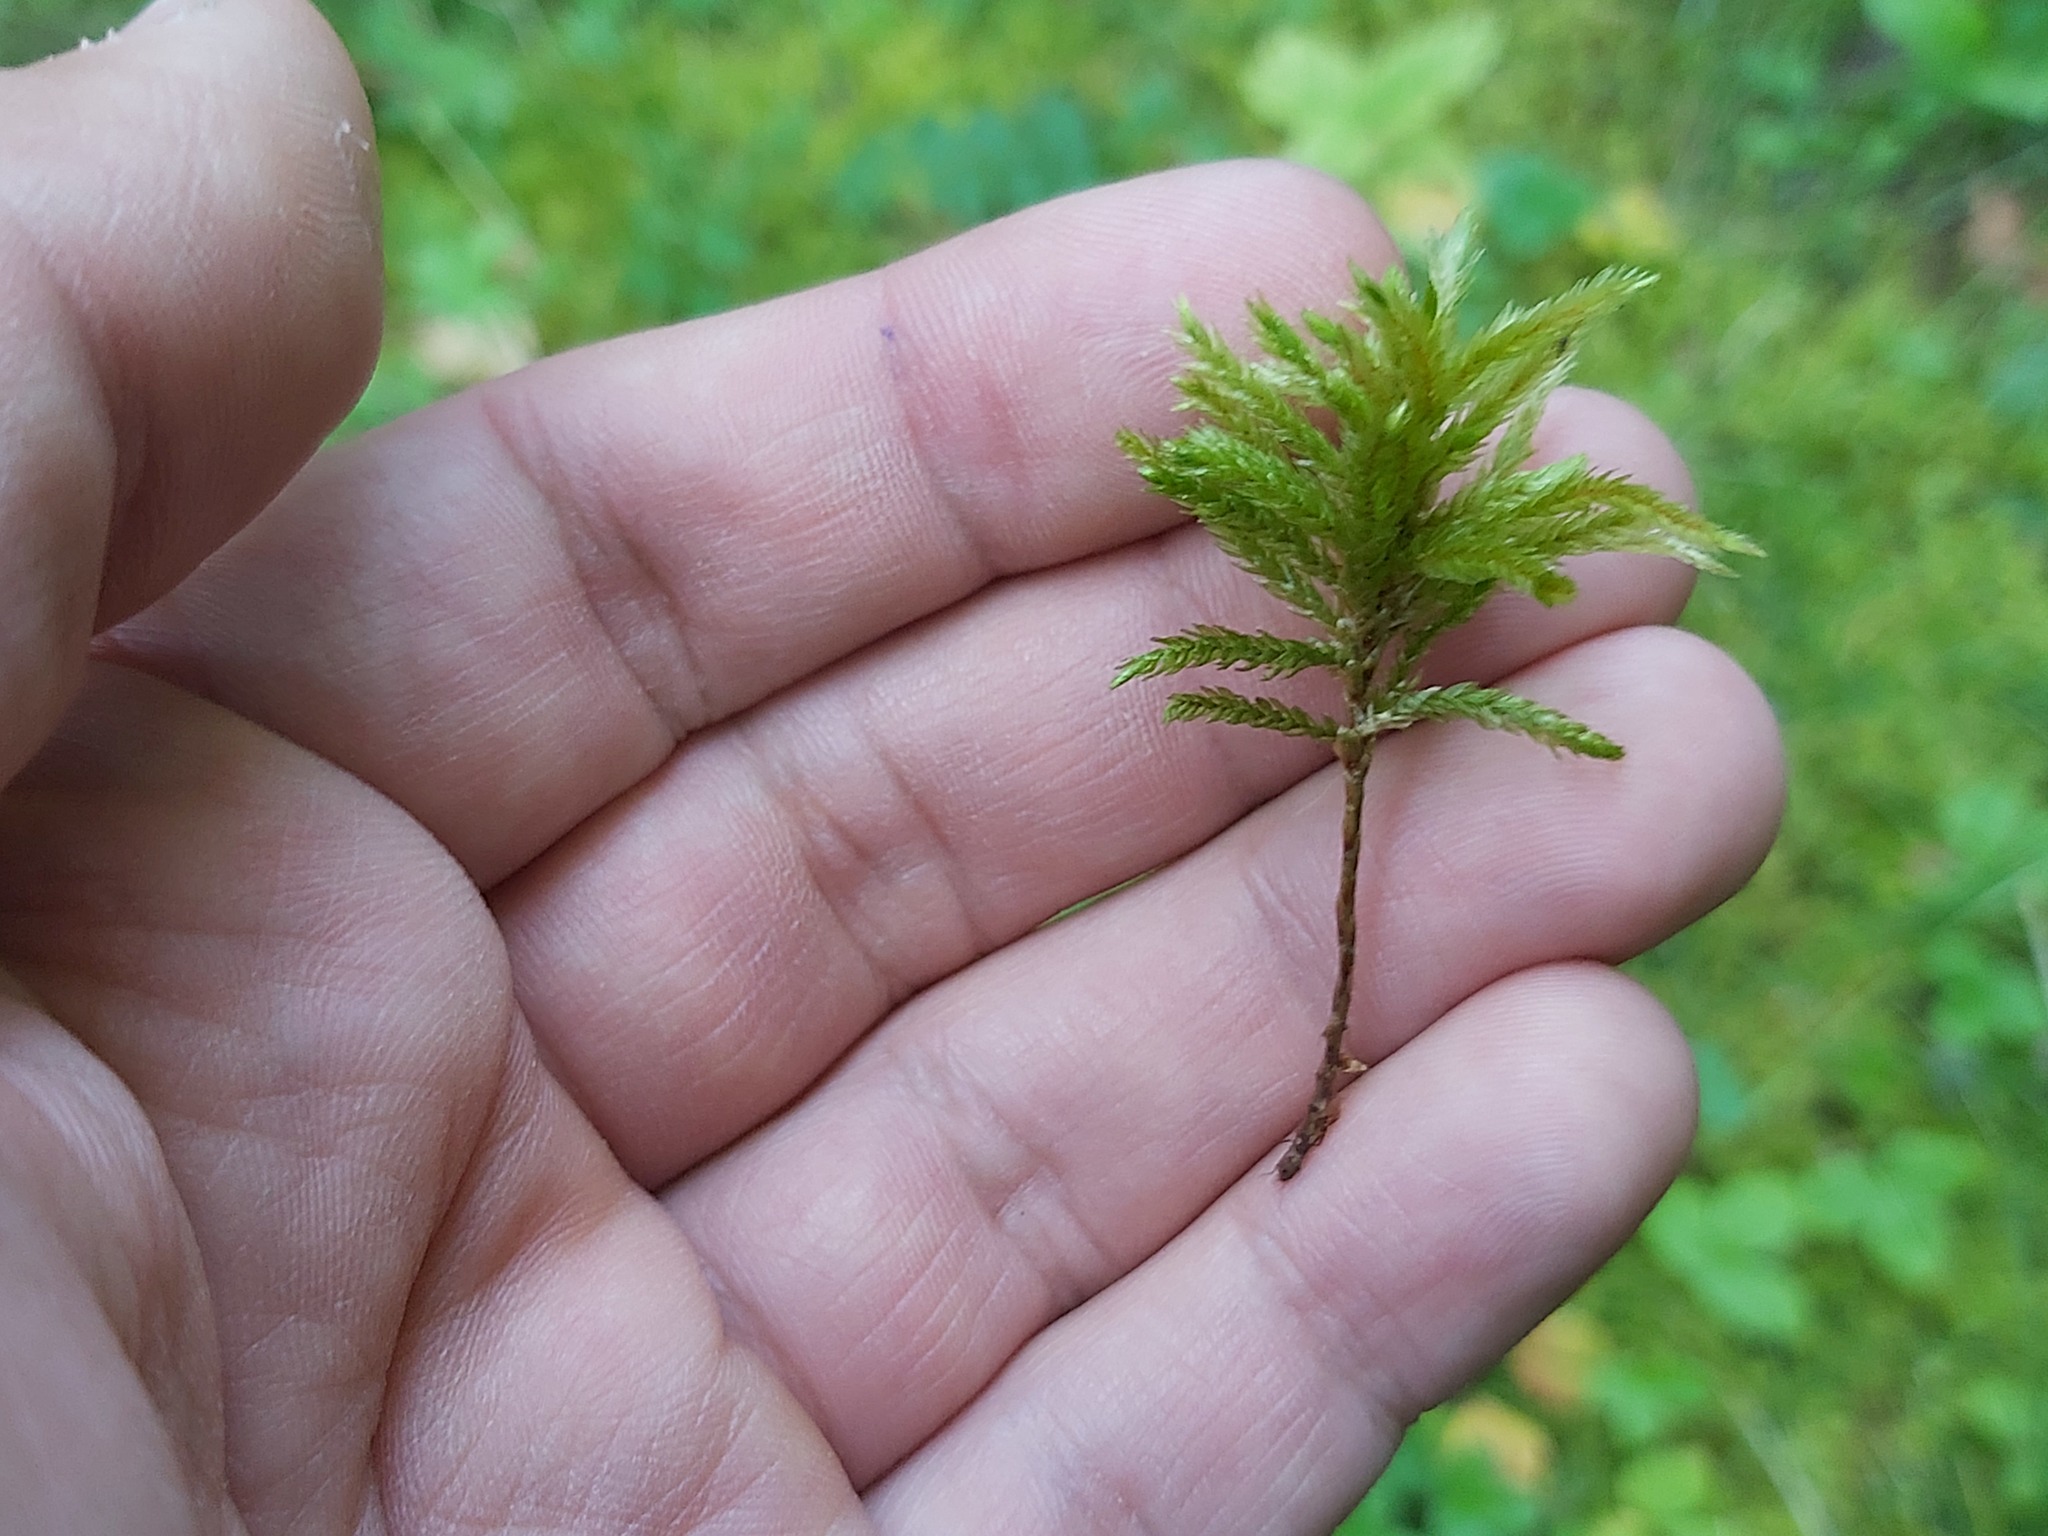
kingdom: Plantae
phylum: Bryophyta
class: Bryopsida
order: Hypnales
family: Climaciaceae
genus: Climacium
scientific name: Climacium dendroides
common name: Northern tree moss
